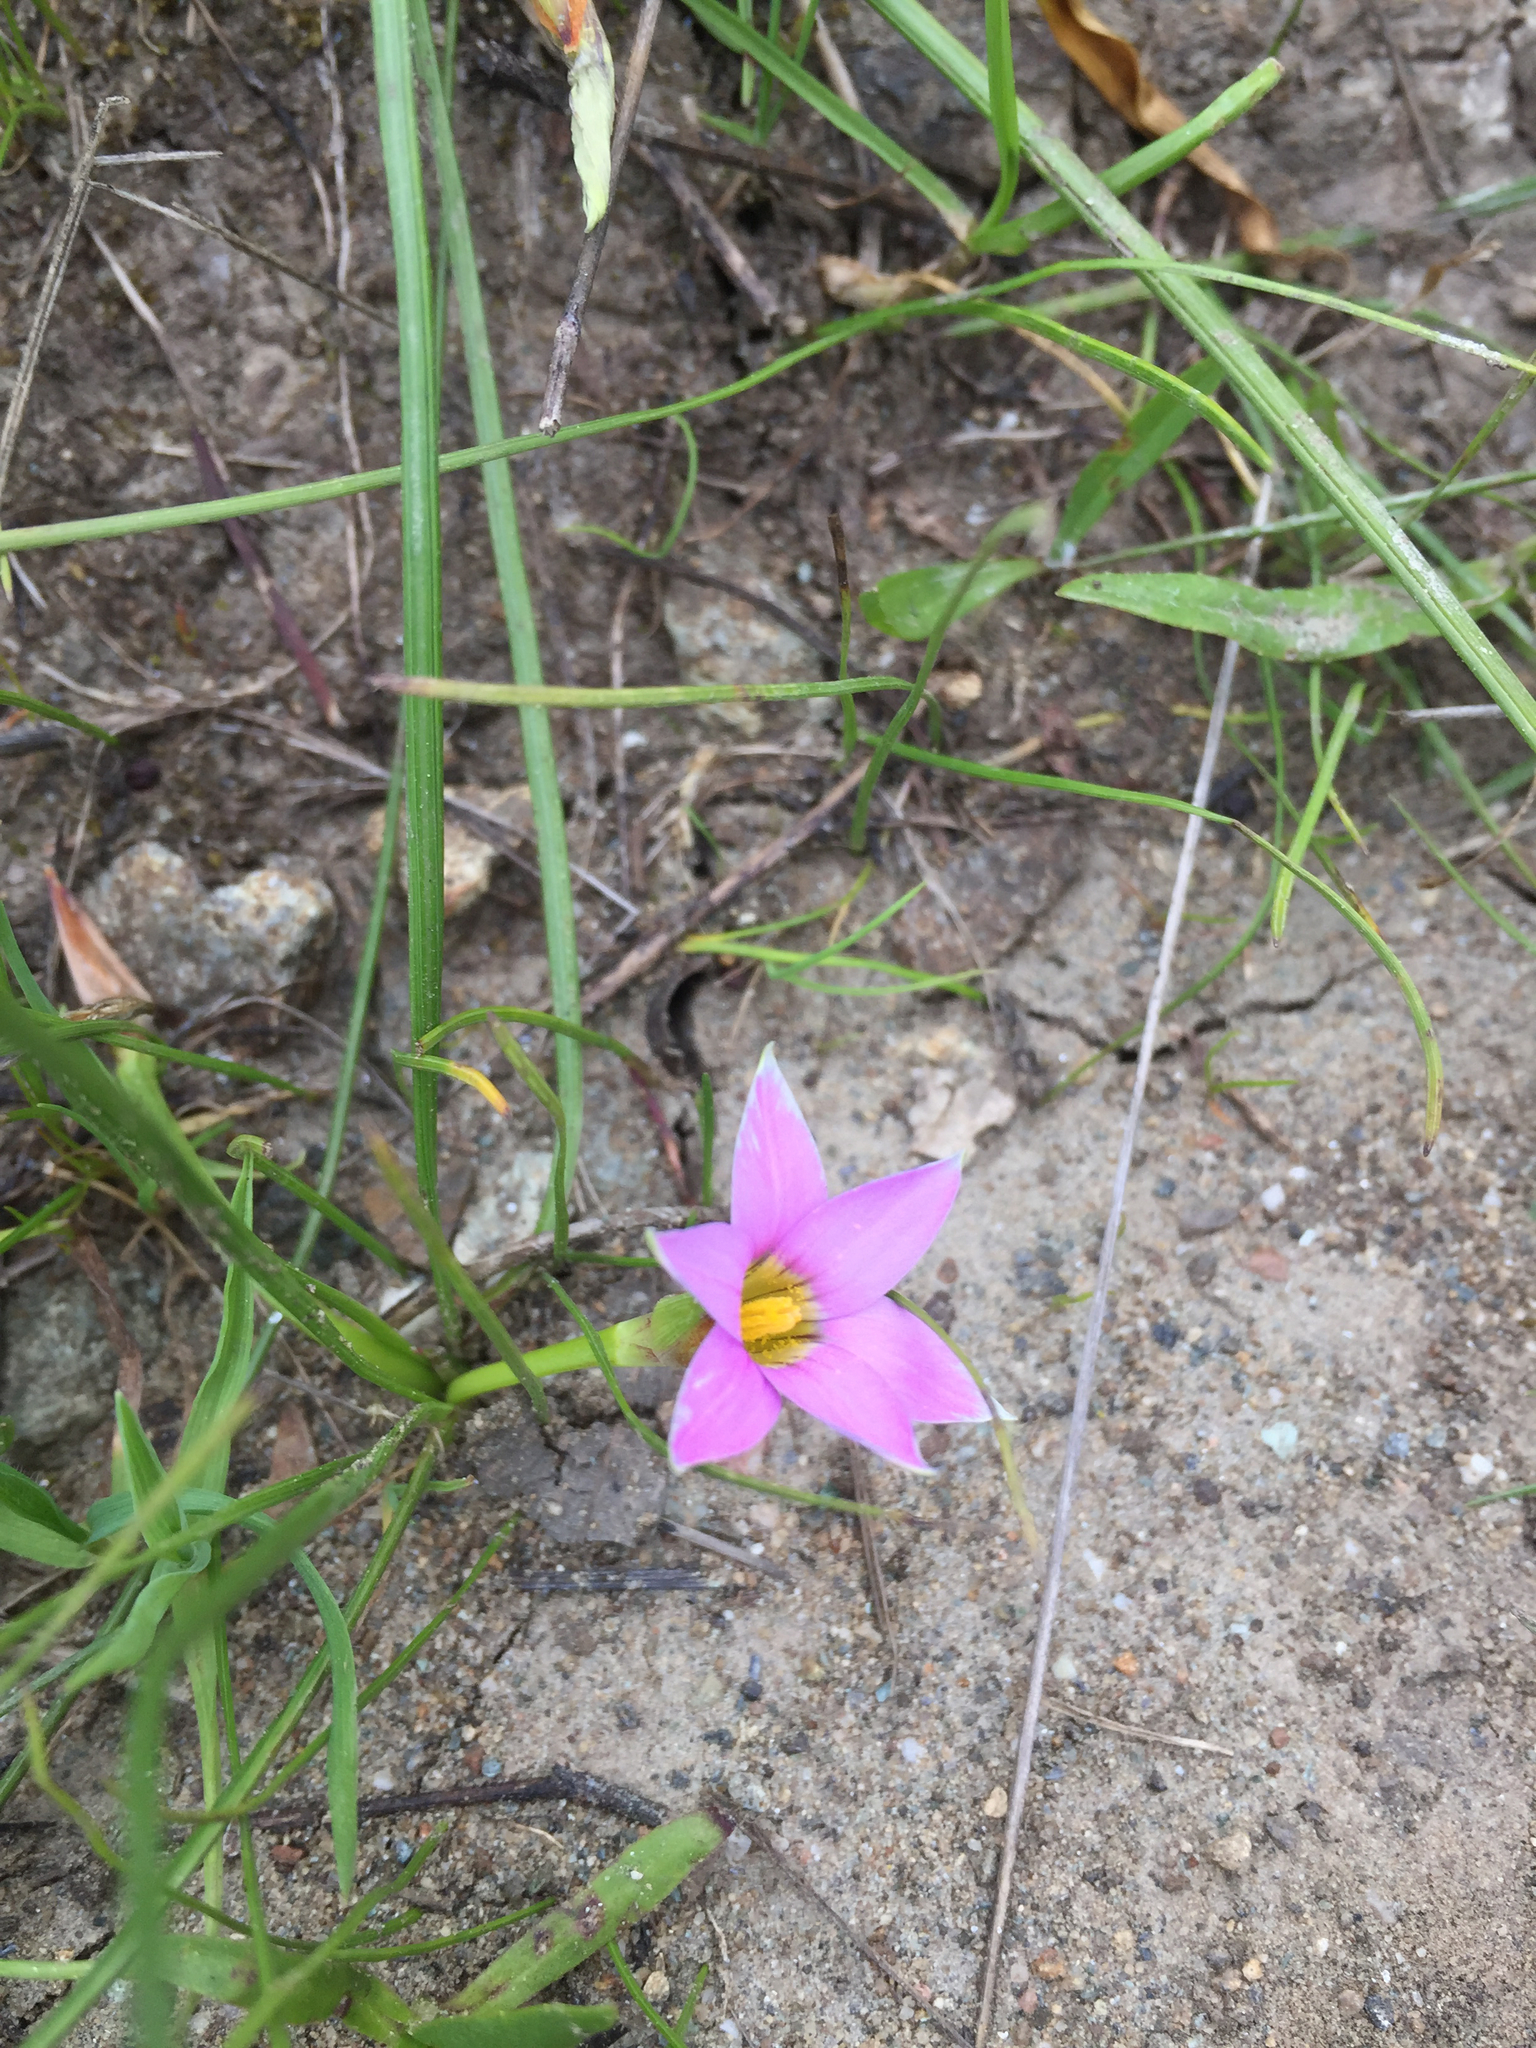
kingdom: Plantae
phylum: Tracheophyta
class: Liliopsida
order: Asparagales
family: Iridaceae
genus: Romulea
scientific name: Romulea rosea
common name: Oniongrass
